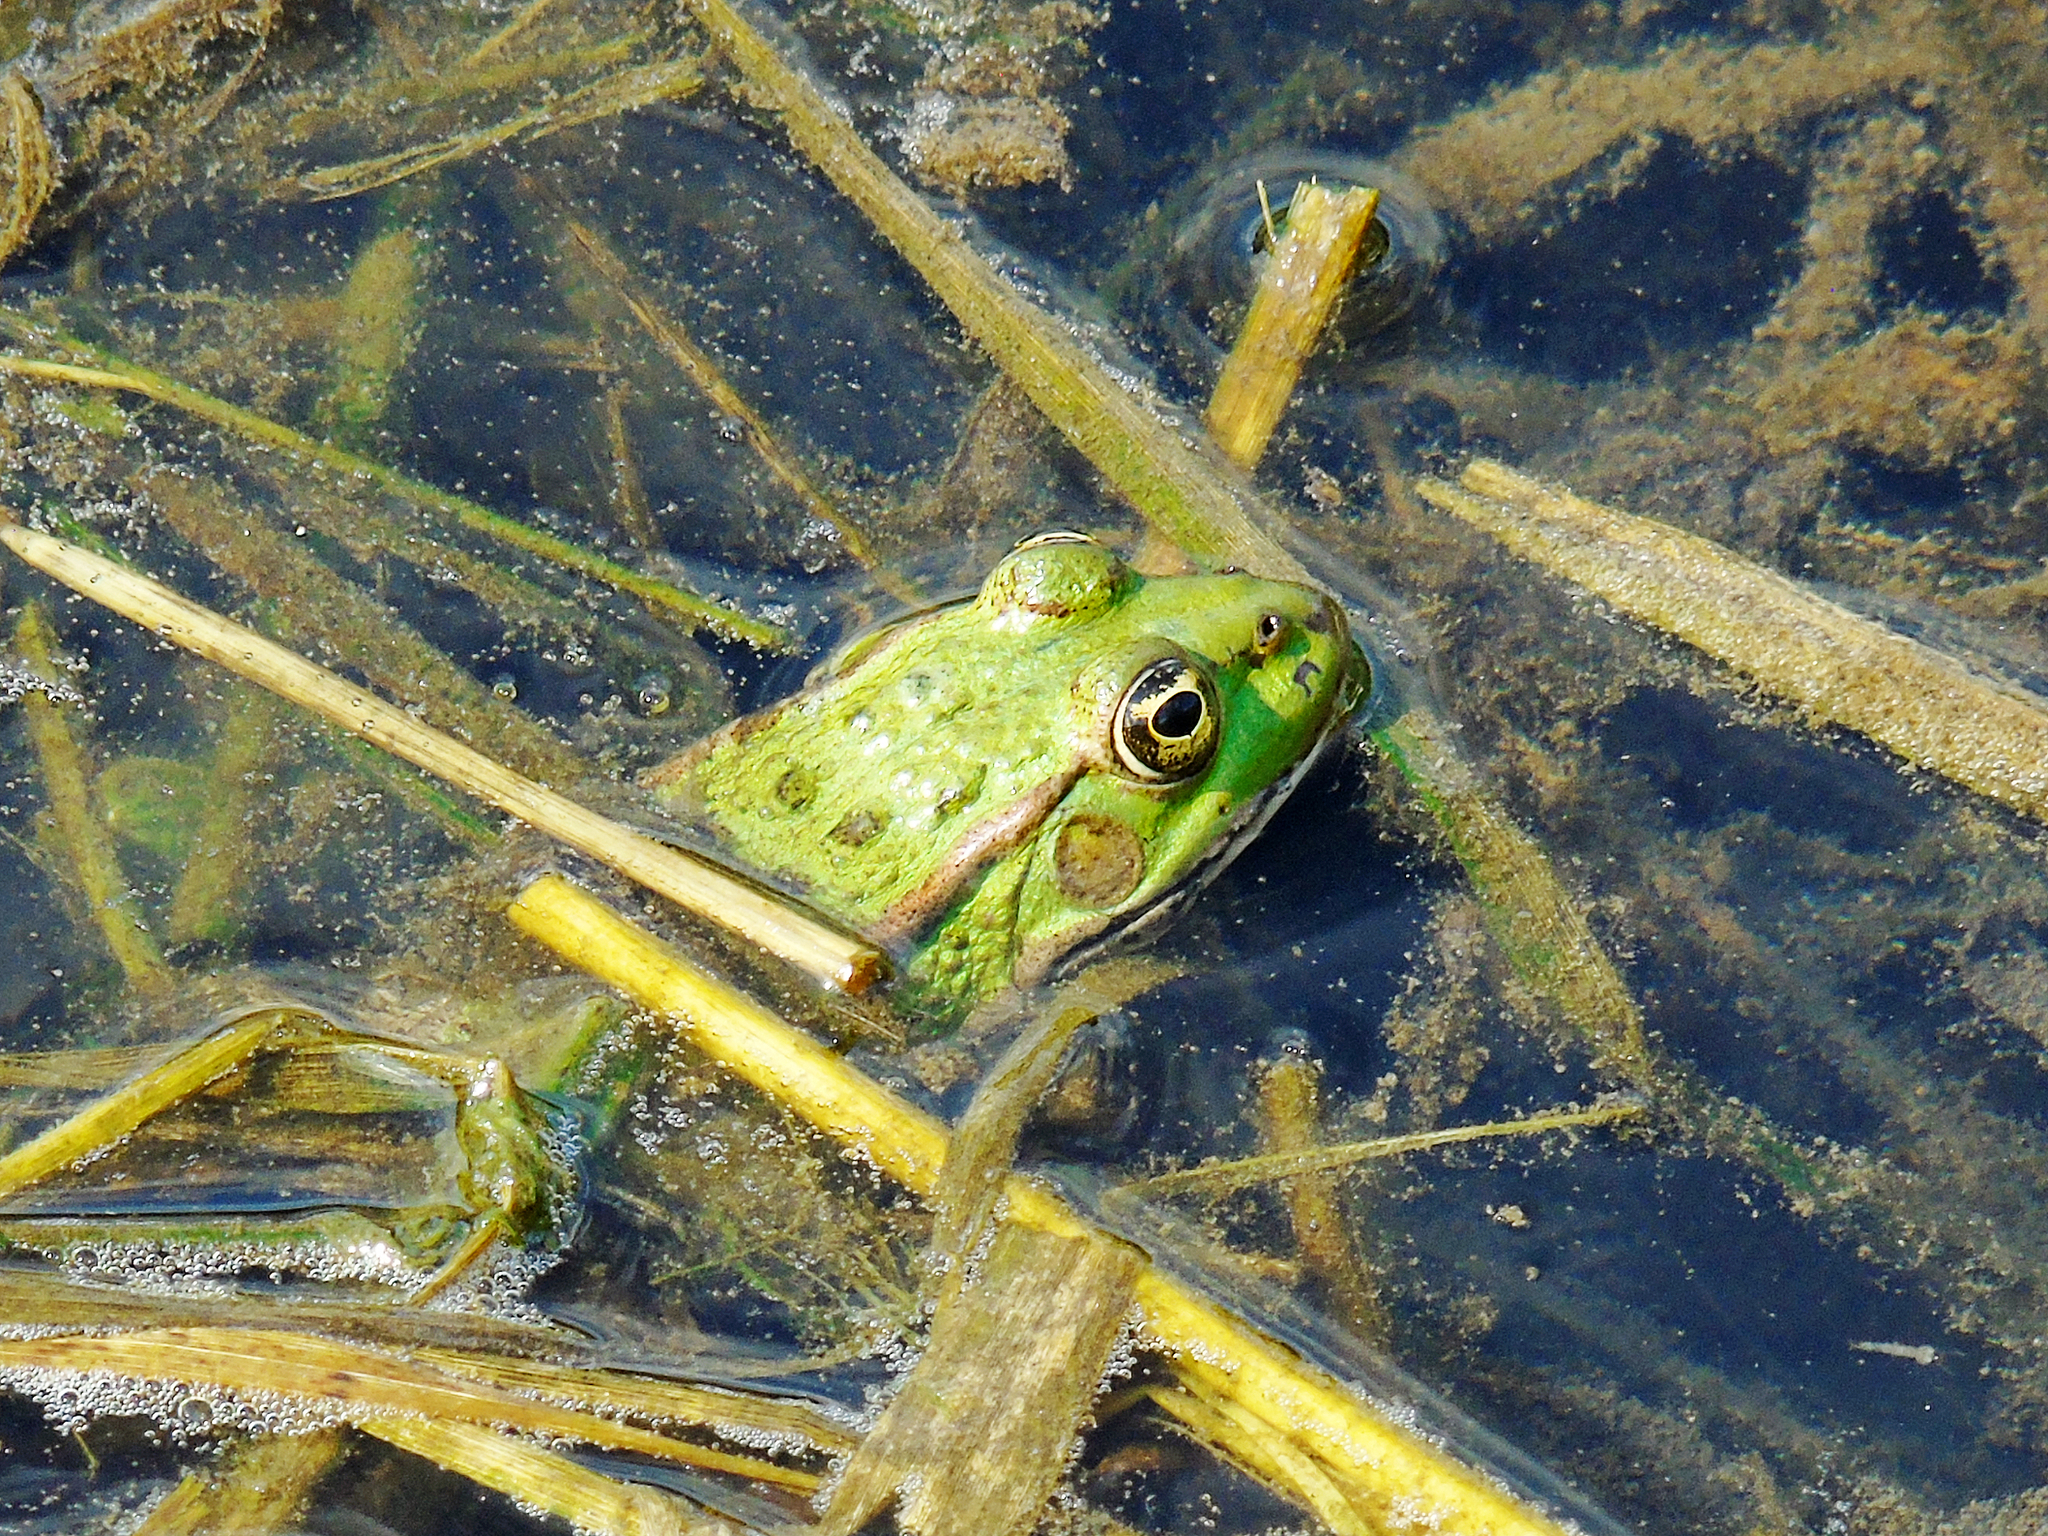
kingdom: Animalia
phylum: Chordata
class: Amphibia
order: Anura
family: Ranidae
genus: Pelophylax
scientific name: Pelophylax ridibundus
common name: Marsh frog
